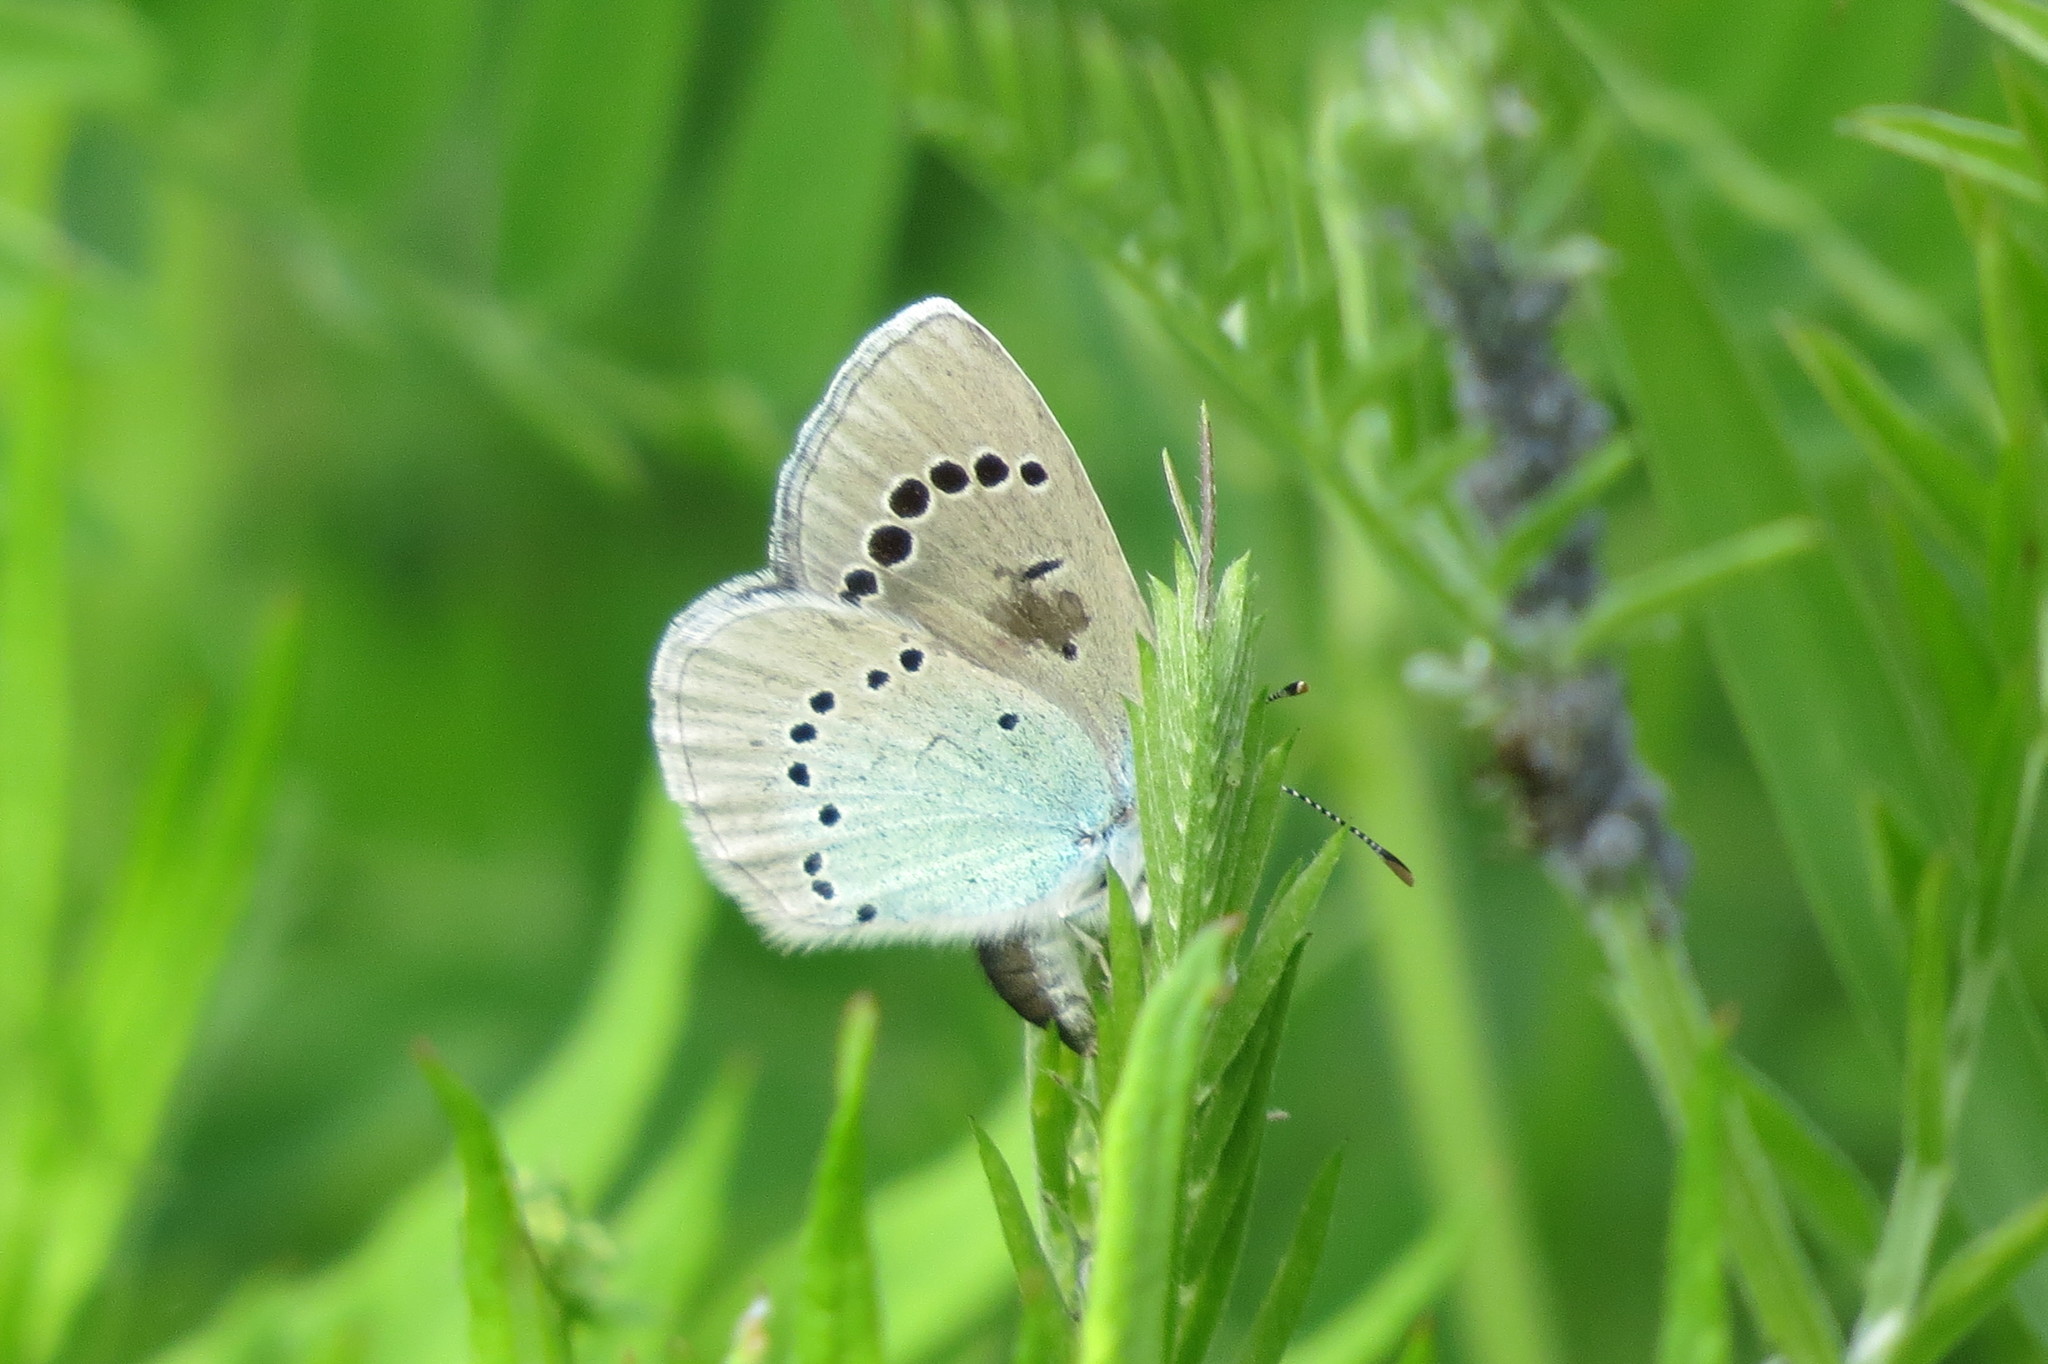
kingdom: Animalia
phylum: Arthropoda
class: Insecta
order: Hemiptera
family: Pentatomidae
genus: Carpocoris
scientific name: Carpocoris purpureipennis
